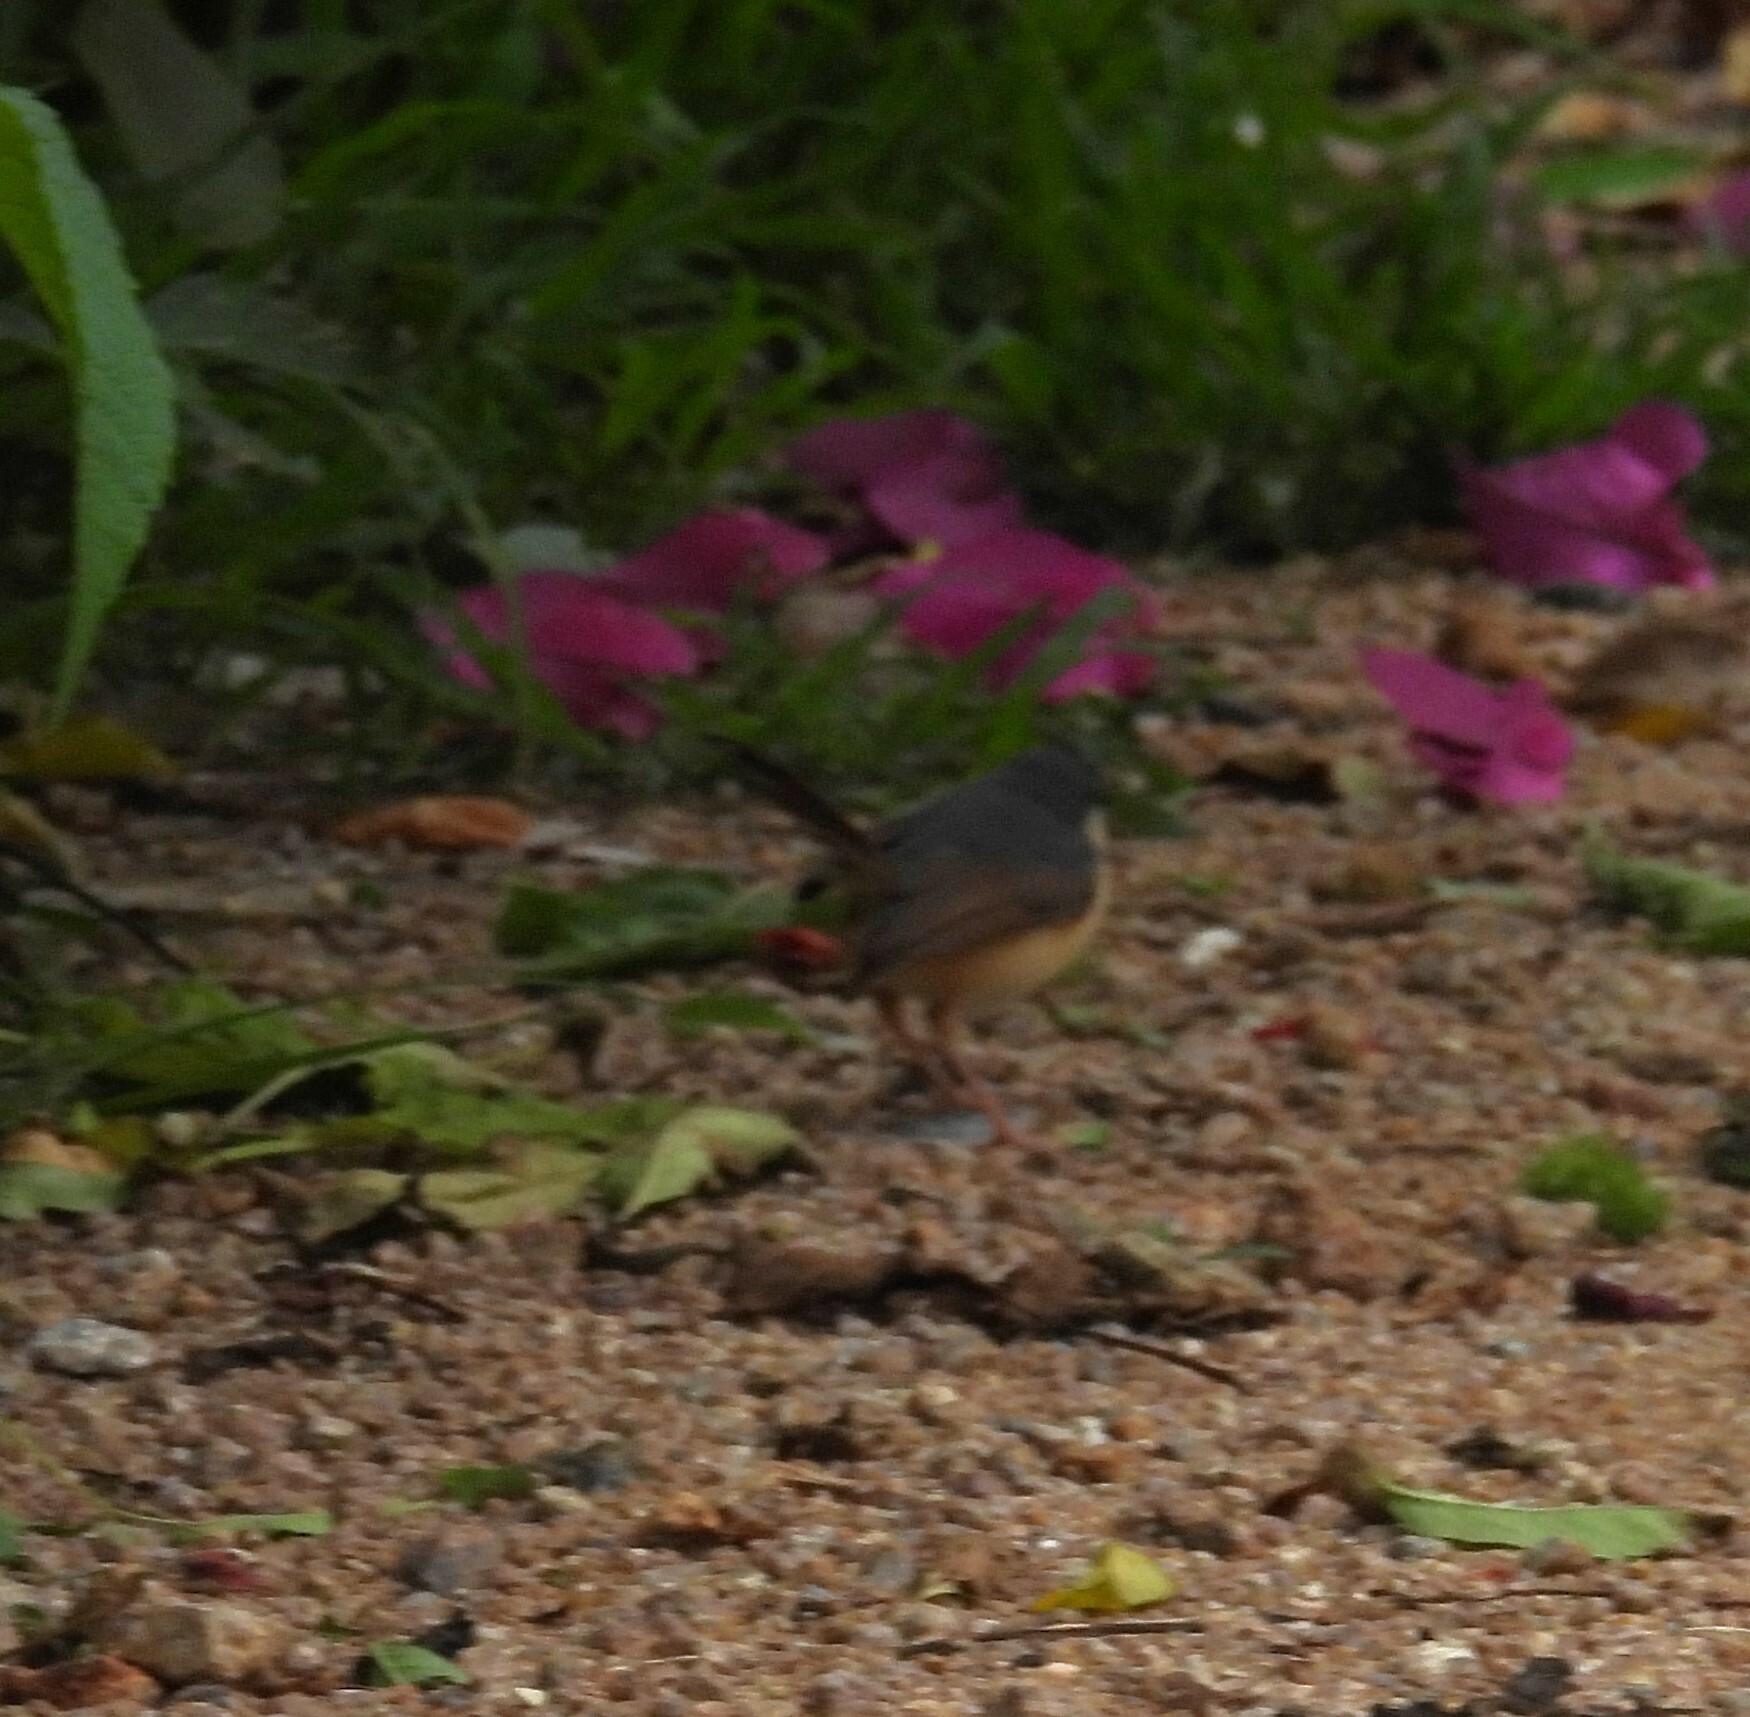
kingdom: Animalia
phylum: Chordata
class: Aves
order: Passeriformes
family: Cisticolidae
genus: Prinia
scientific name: Prinia socialis
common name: Ashy prinia
